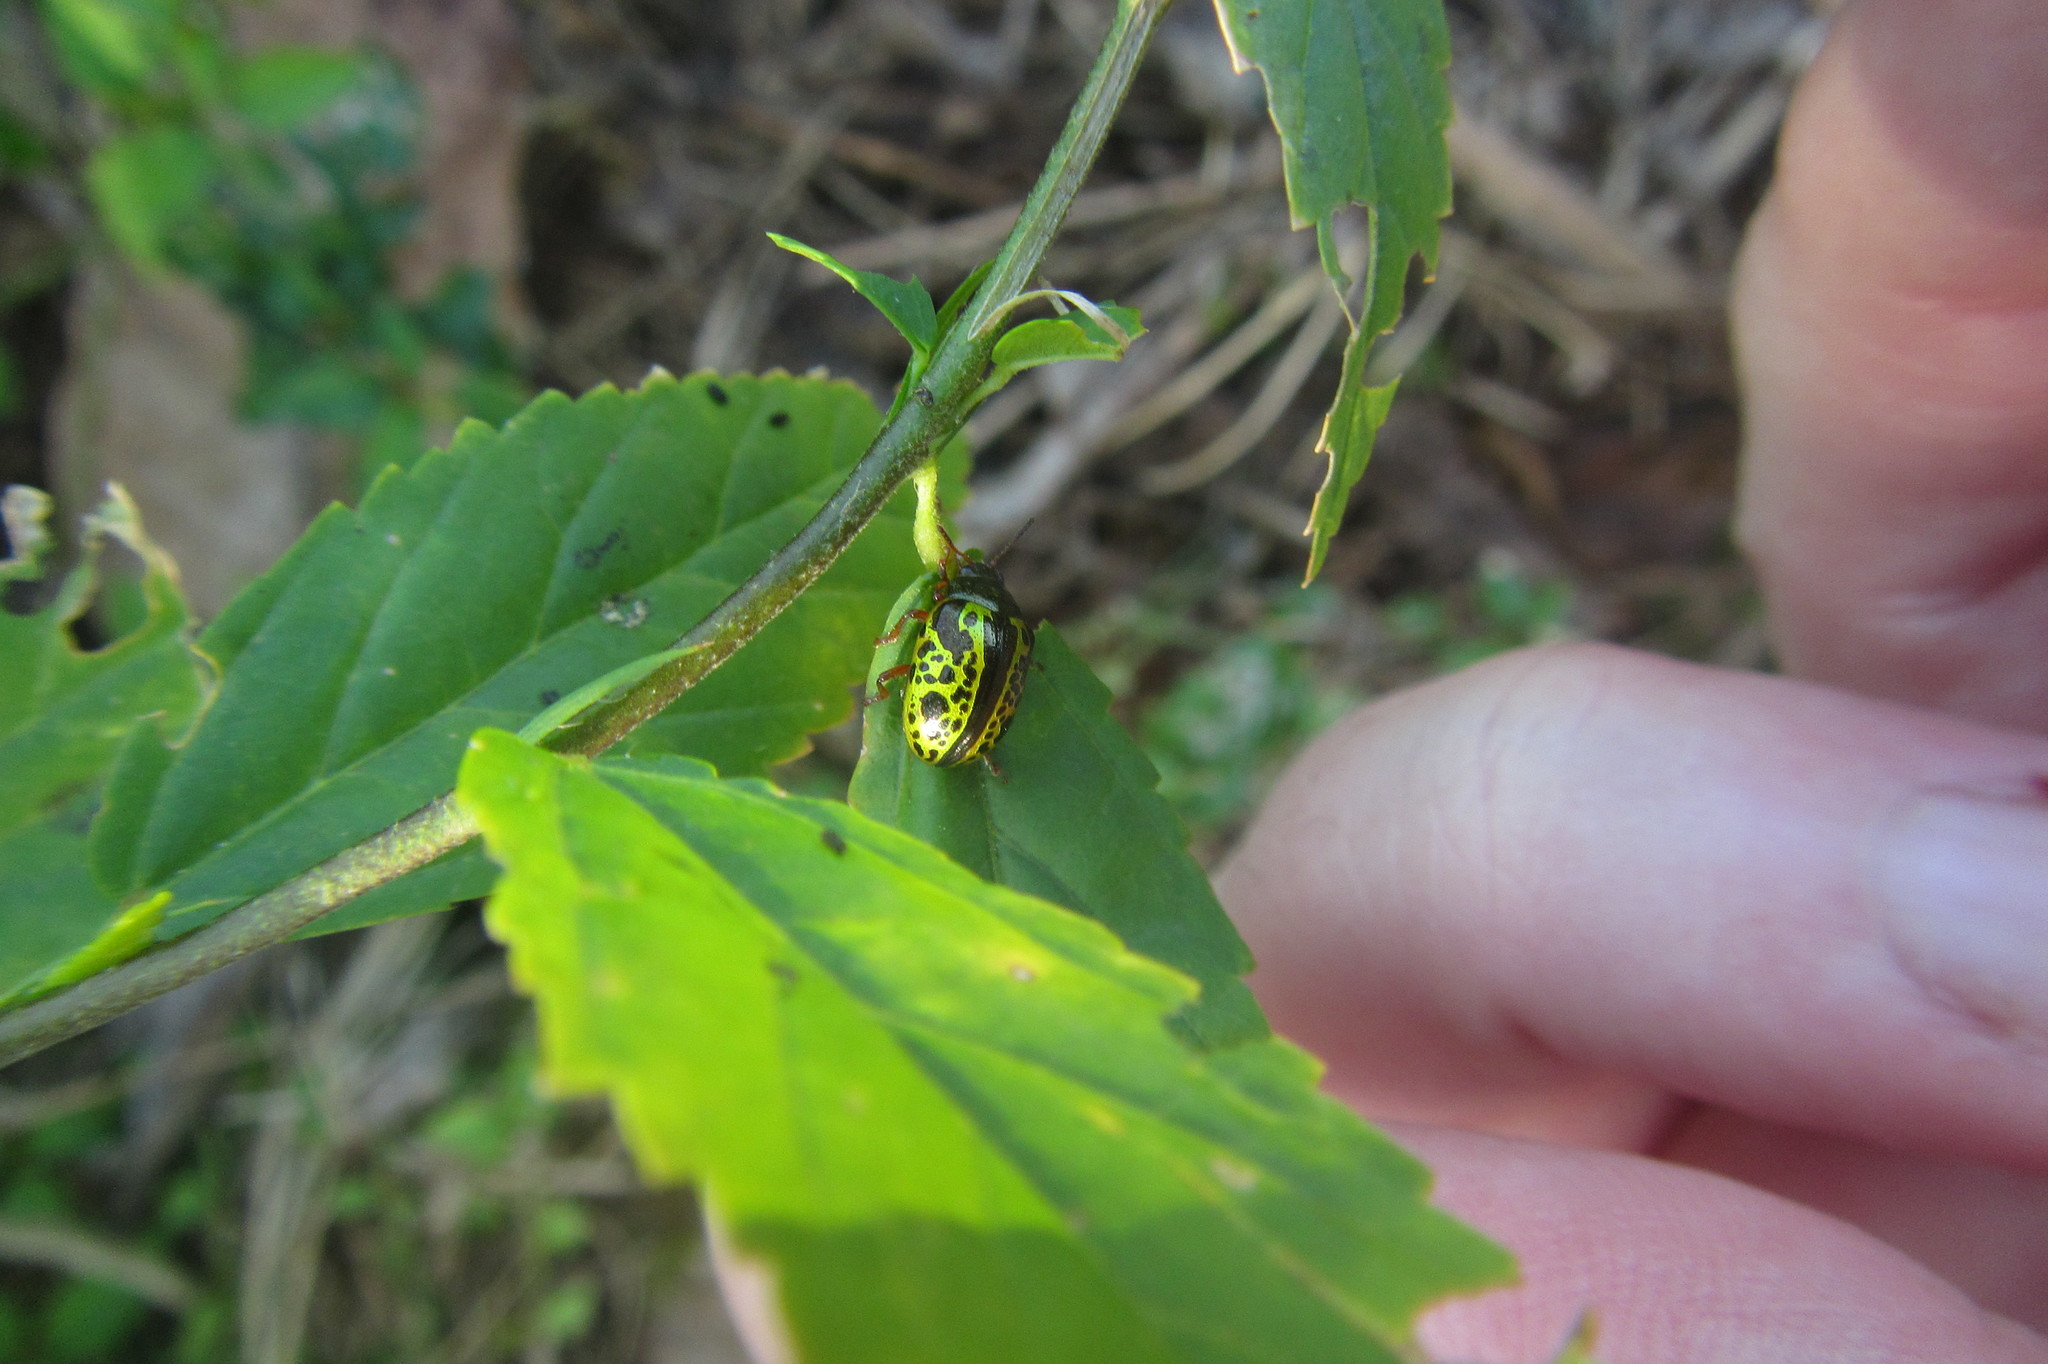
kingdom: Animalia
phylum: Arthropoda
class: Insecta
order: Coleoptera
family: Chrysomelidae
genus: Calligrapha
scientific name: Calligrapha pantherina
